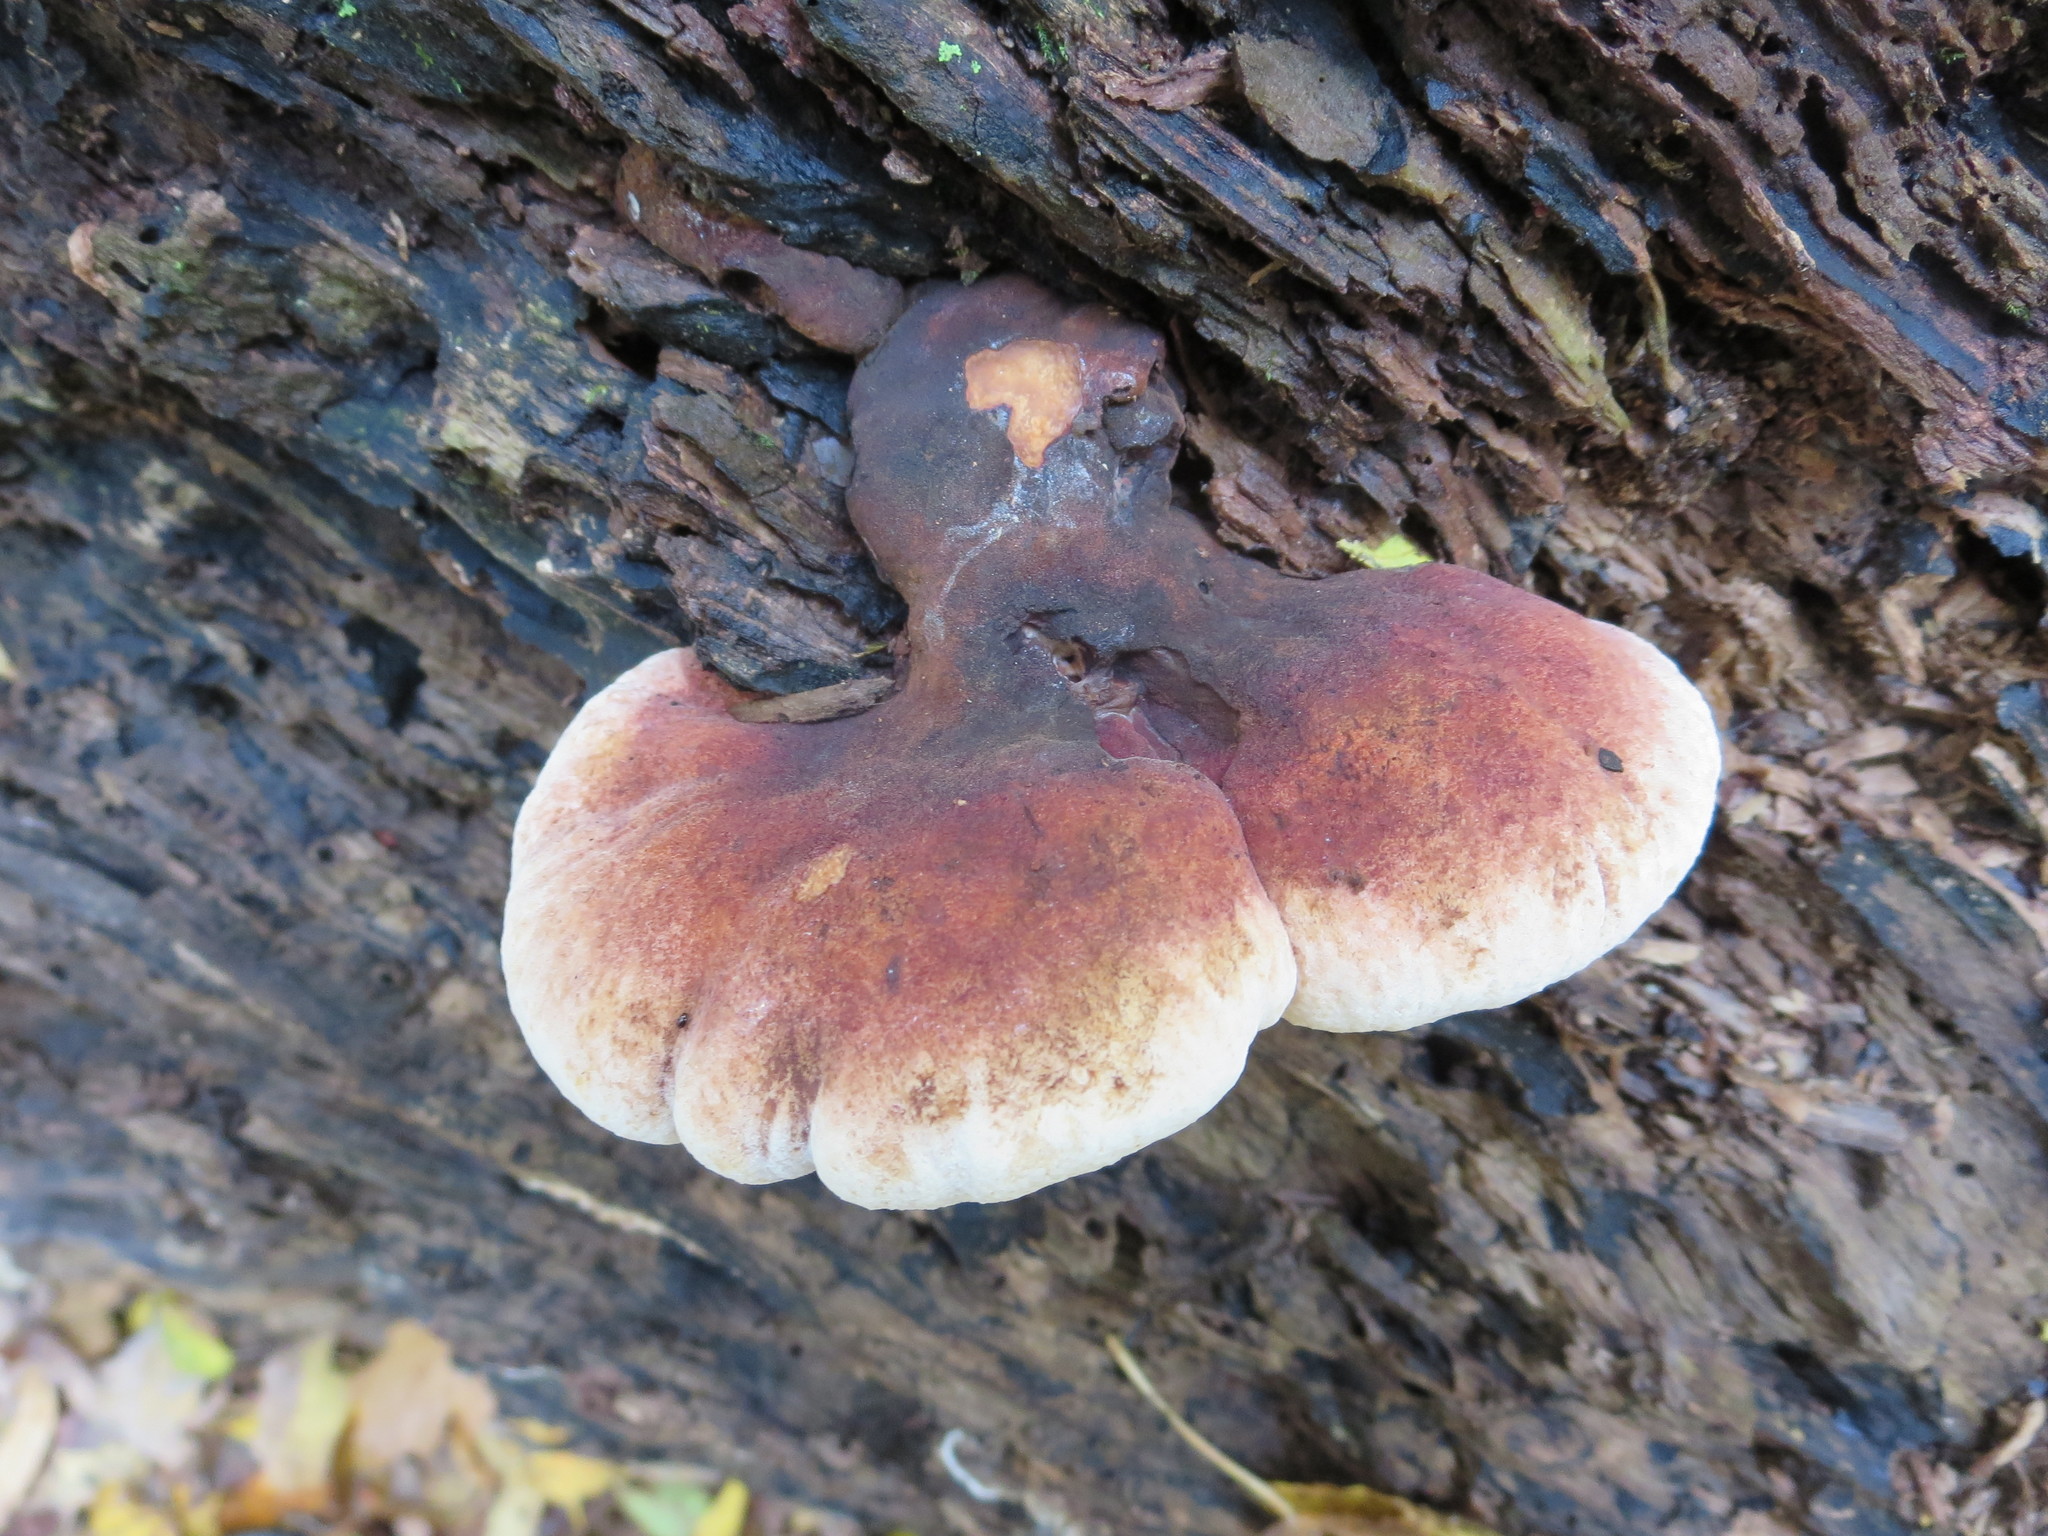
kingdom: Fungi
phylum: Basidiomycota
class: Agaricomycetes
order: Polyporales
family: Ischnodermataceae
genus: Ischnoderma
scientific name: Ischnoderma resinosum
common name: Resinous polypore
